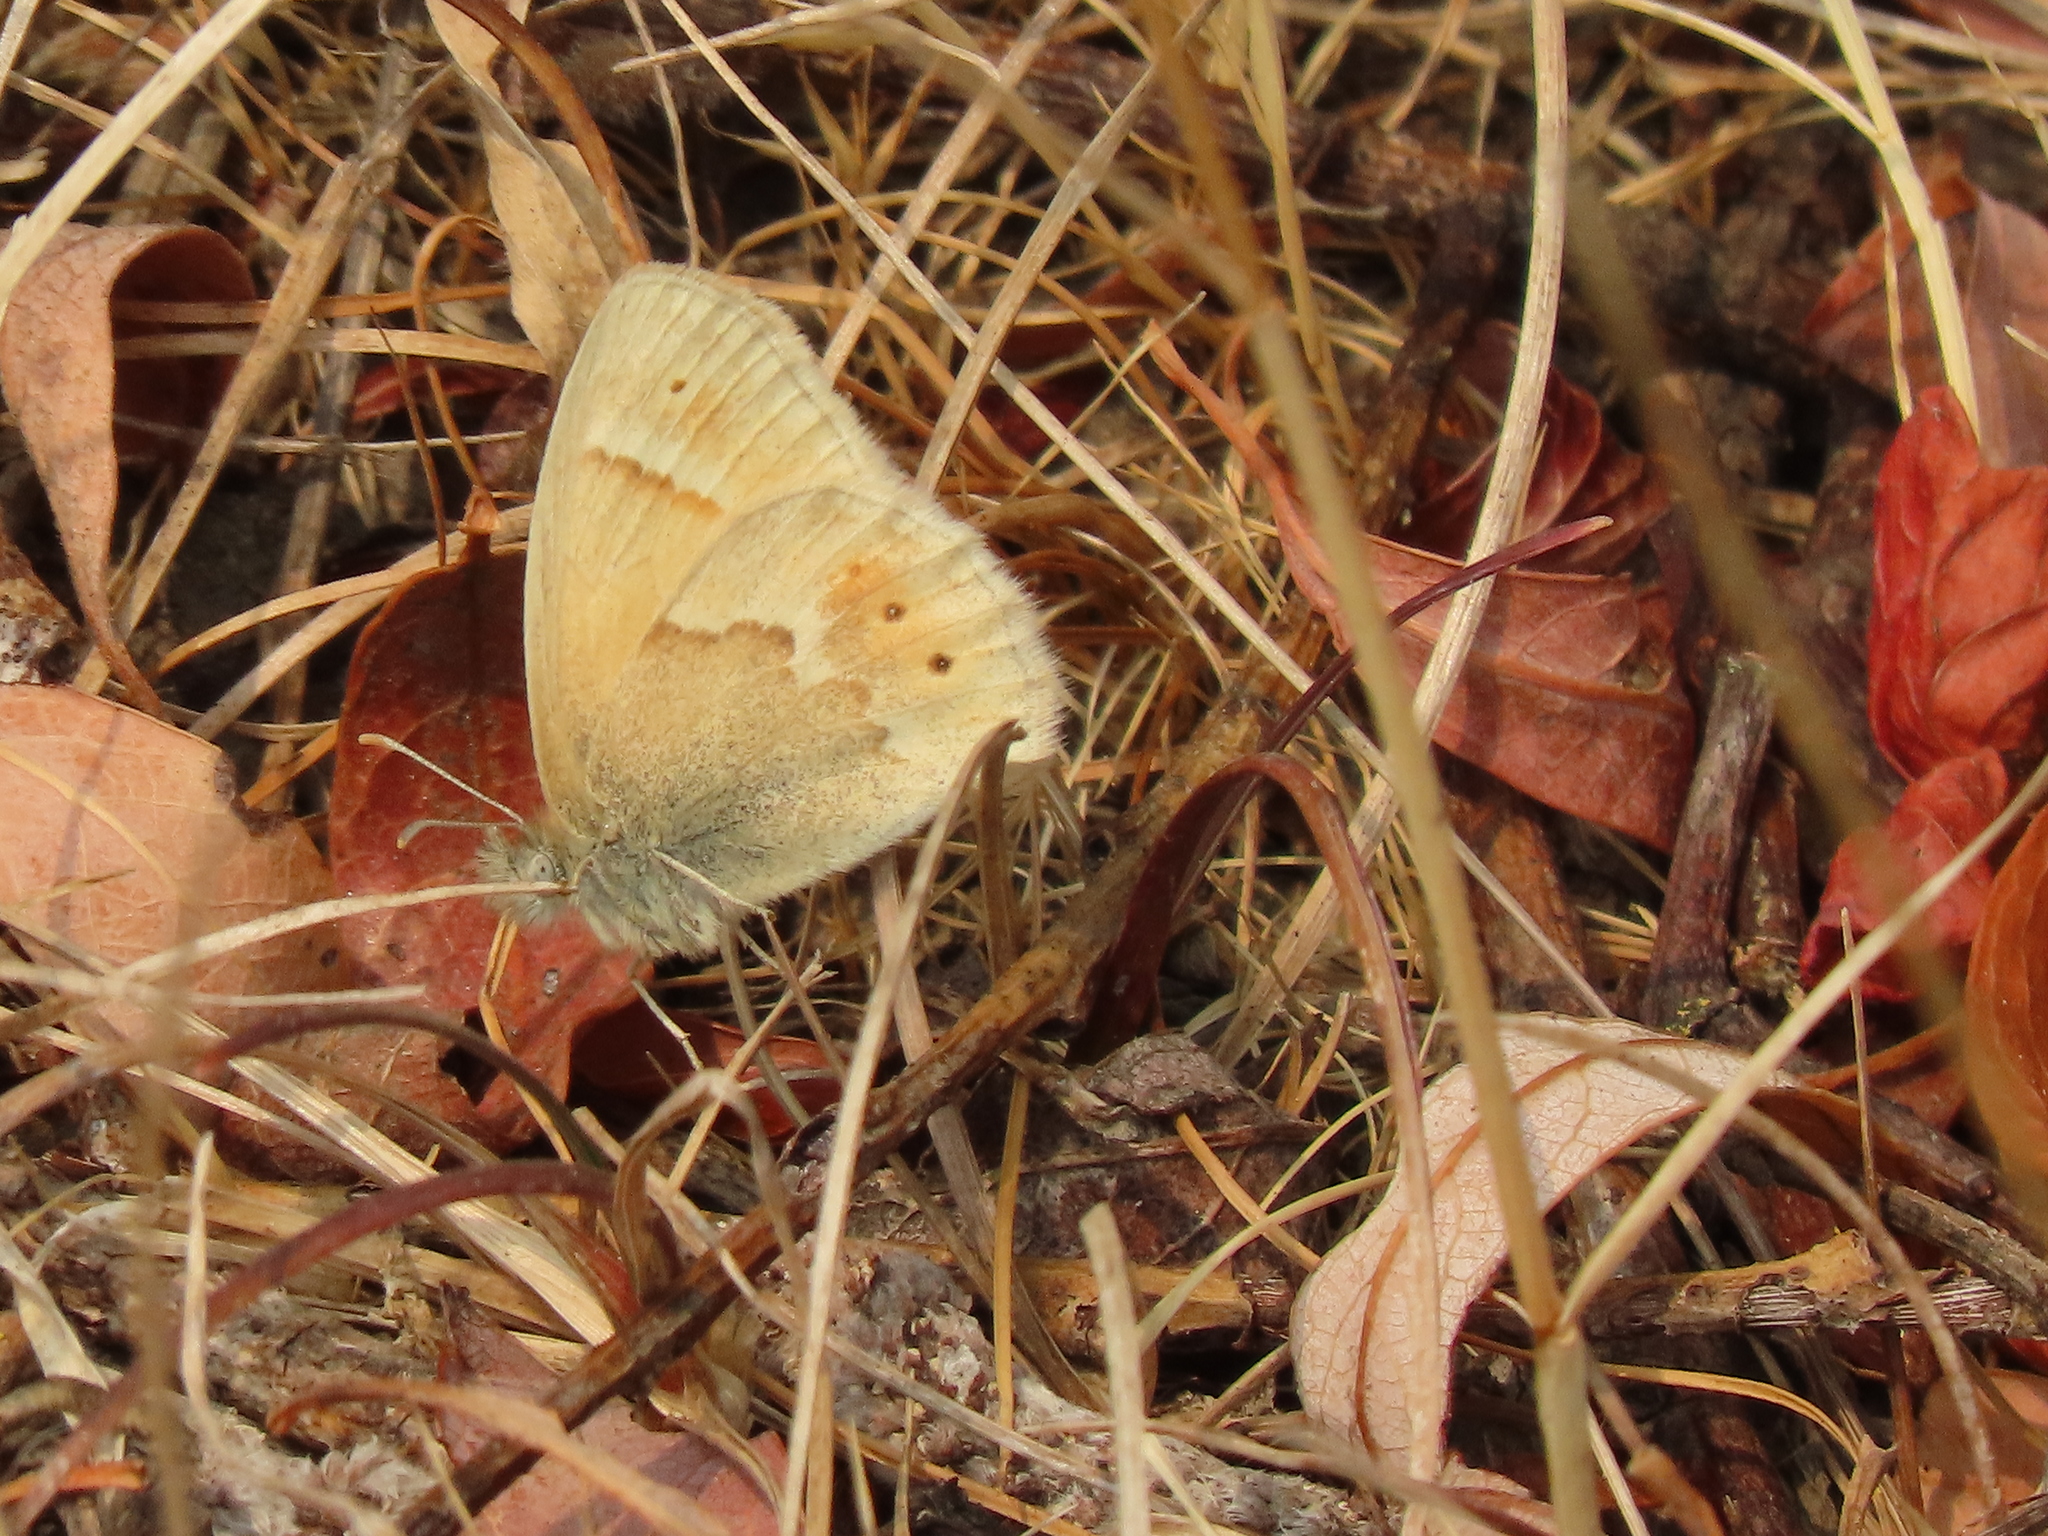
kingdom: Animalia
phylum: Arthropoda
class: Insecta
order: Lepidoptera
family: Nymphalidae
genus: Coenonympha
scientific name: Coenonympha california
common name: Common ringlet
